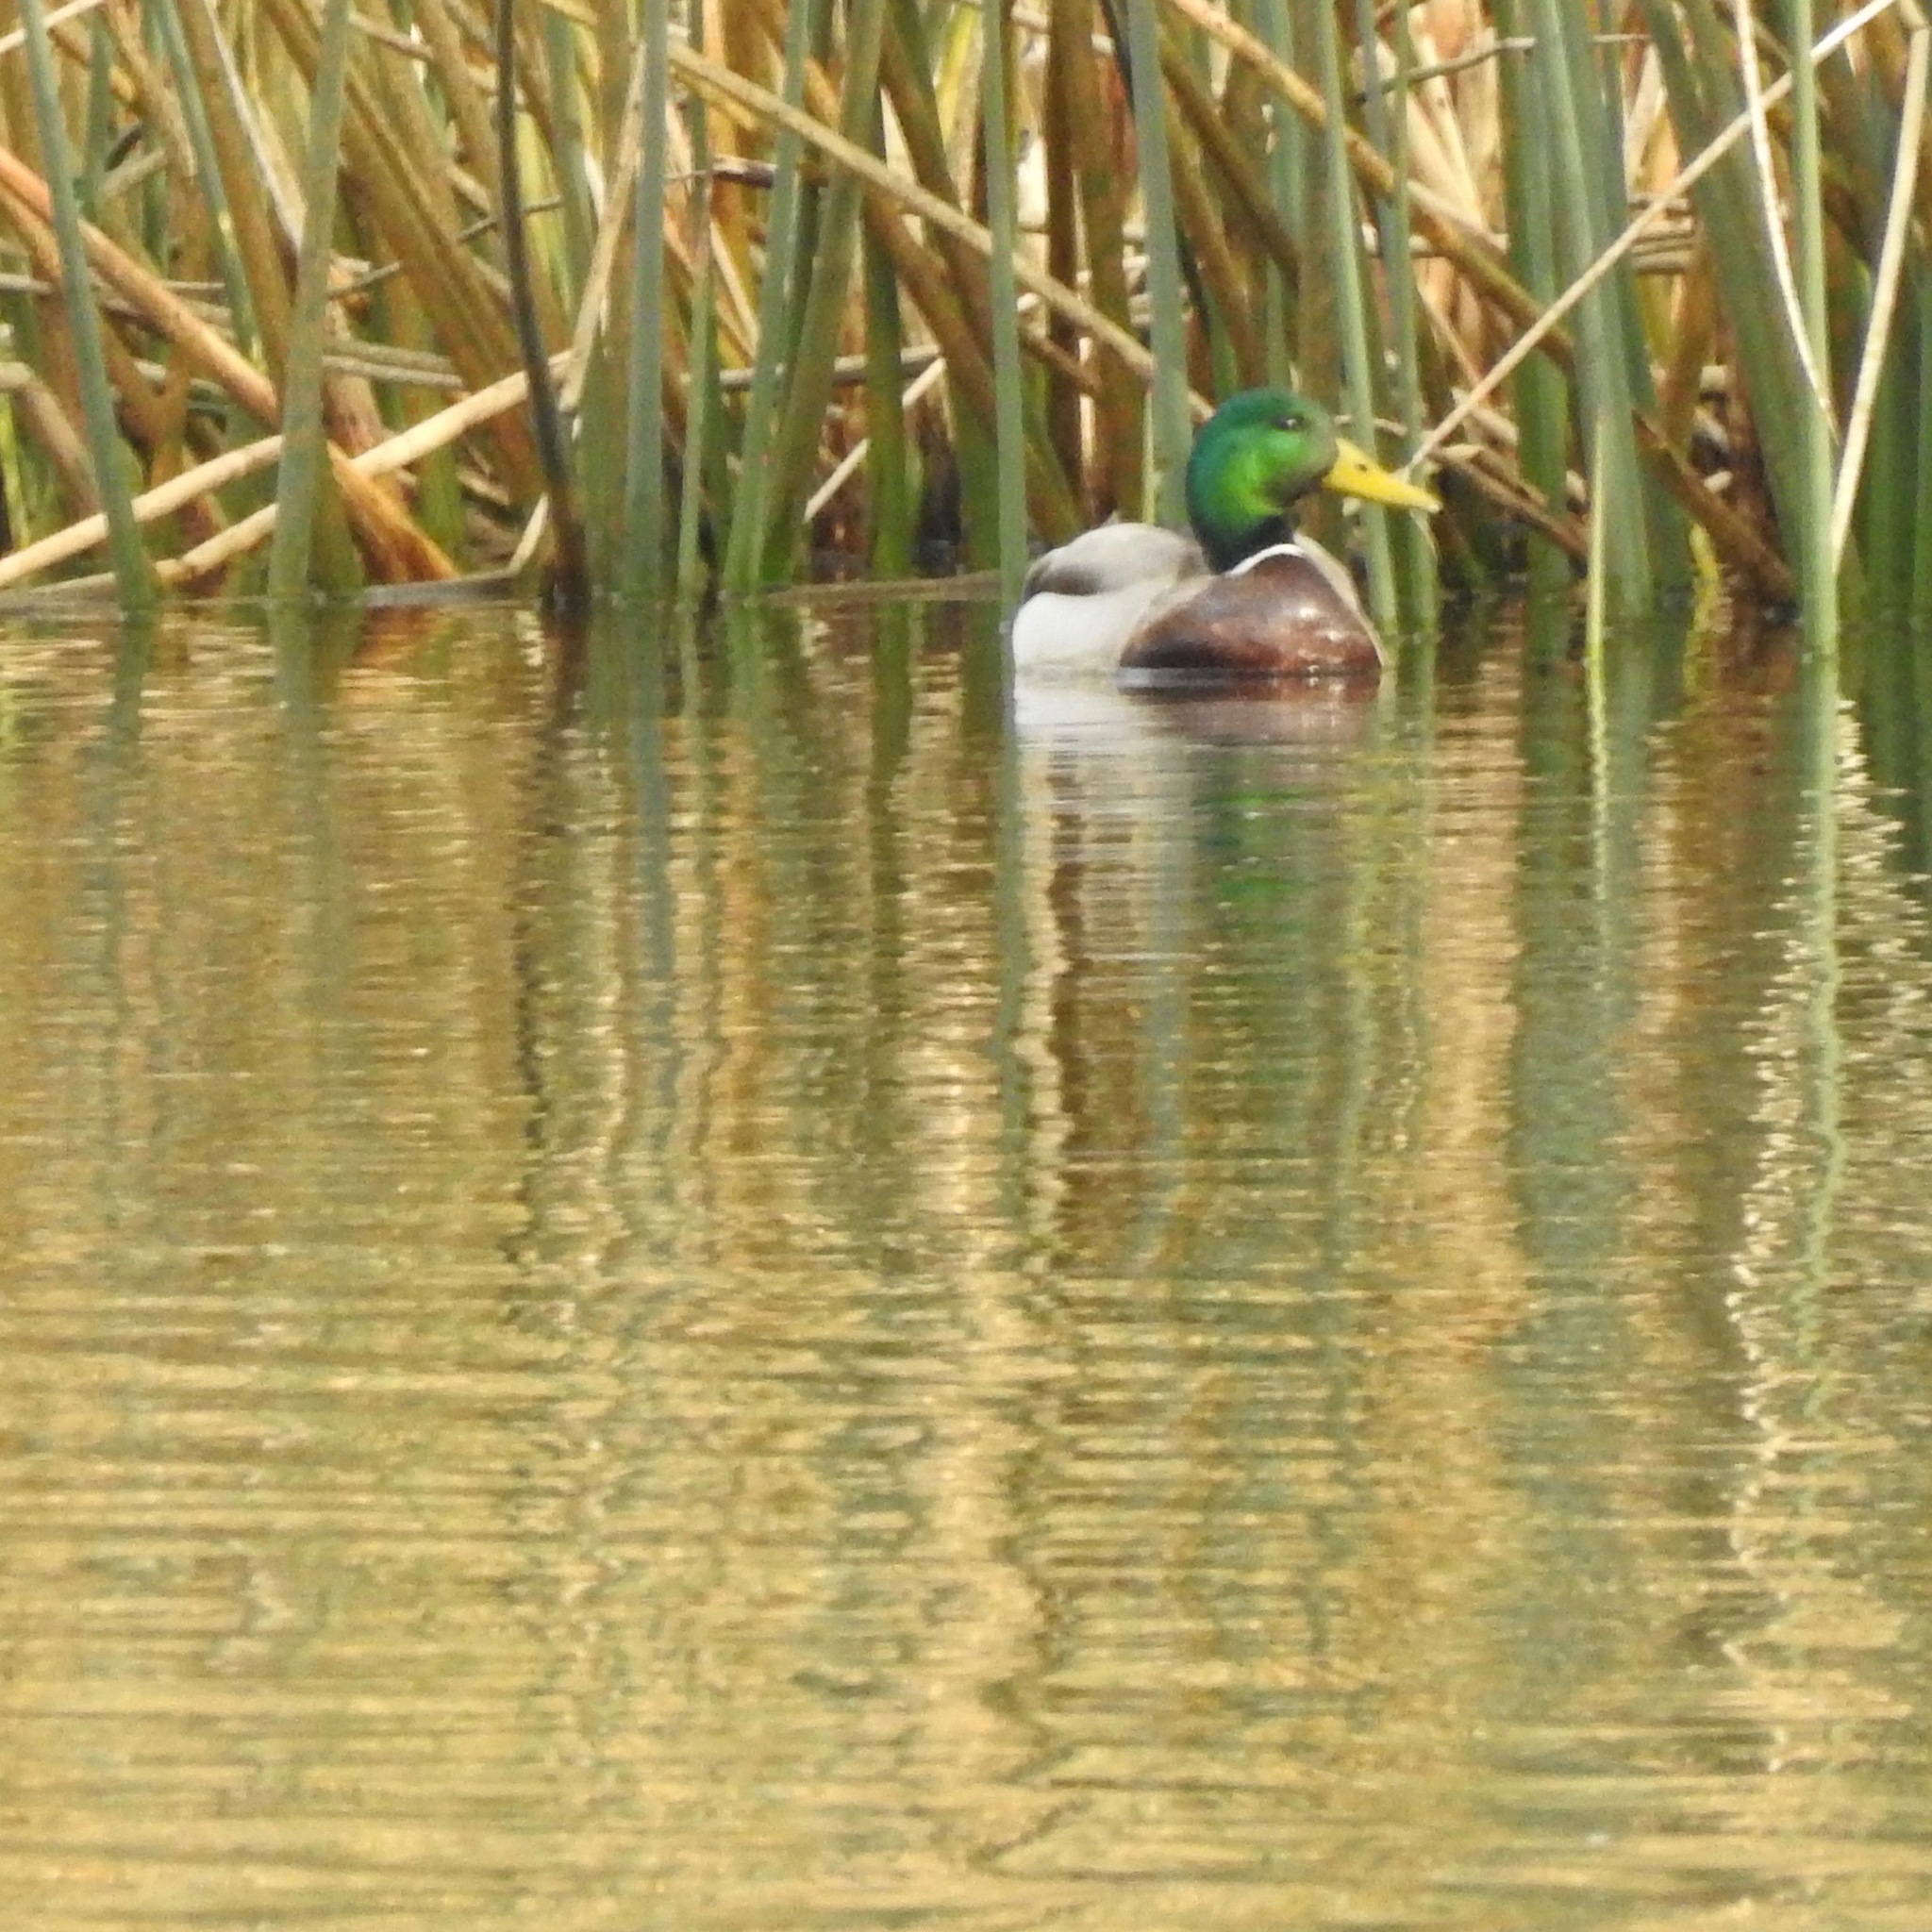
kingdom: Animalia
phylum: Chordata
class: Aves
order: Anseriformes
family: Anatidae
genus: Anas
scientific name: Anas platyrhynchos
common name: Mallard
